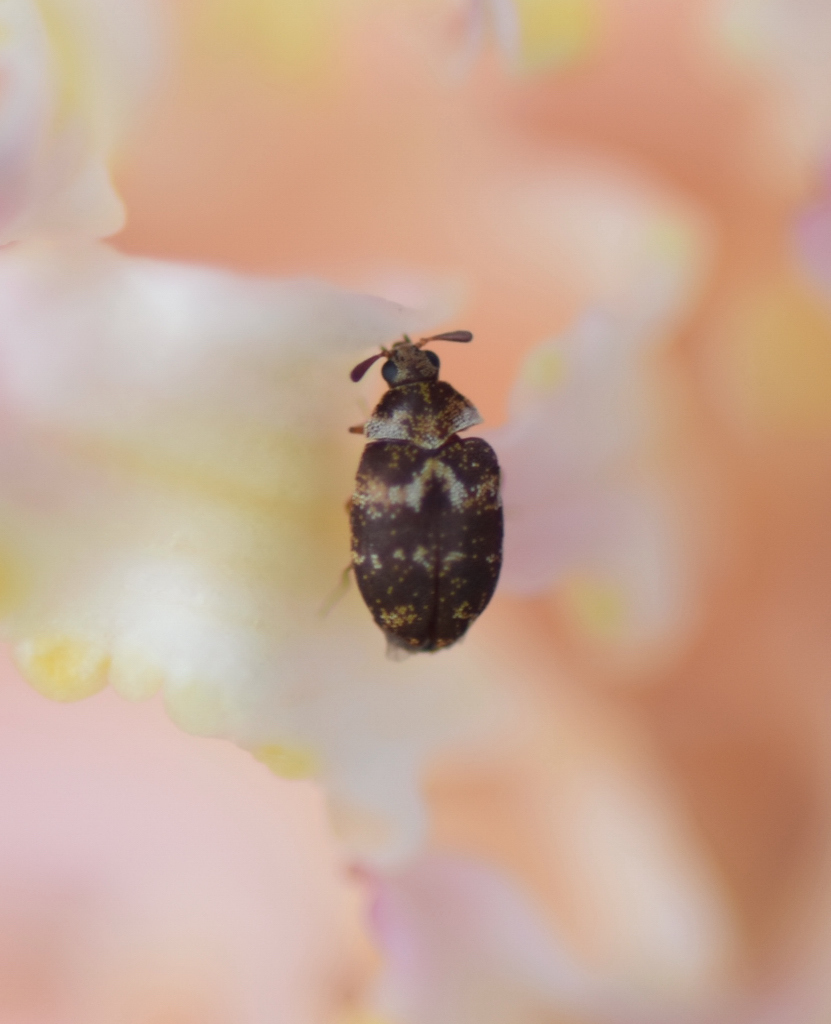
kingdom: Animalia
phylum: Arthropoda
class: Insecta
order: Coleoptera
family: Dermestidae
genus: Anthrenus
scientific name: Anthrenus fuscus
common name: Mill carpet beetle
